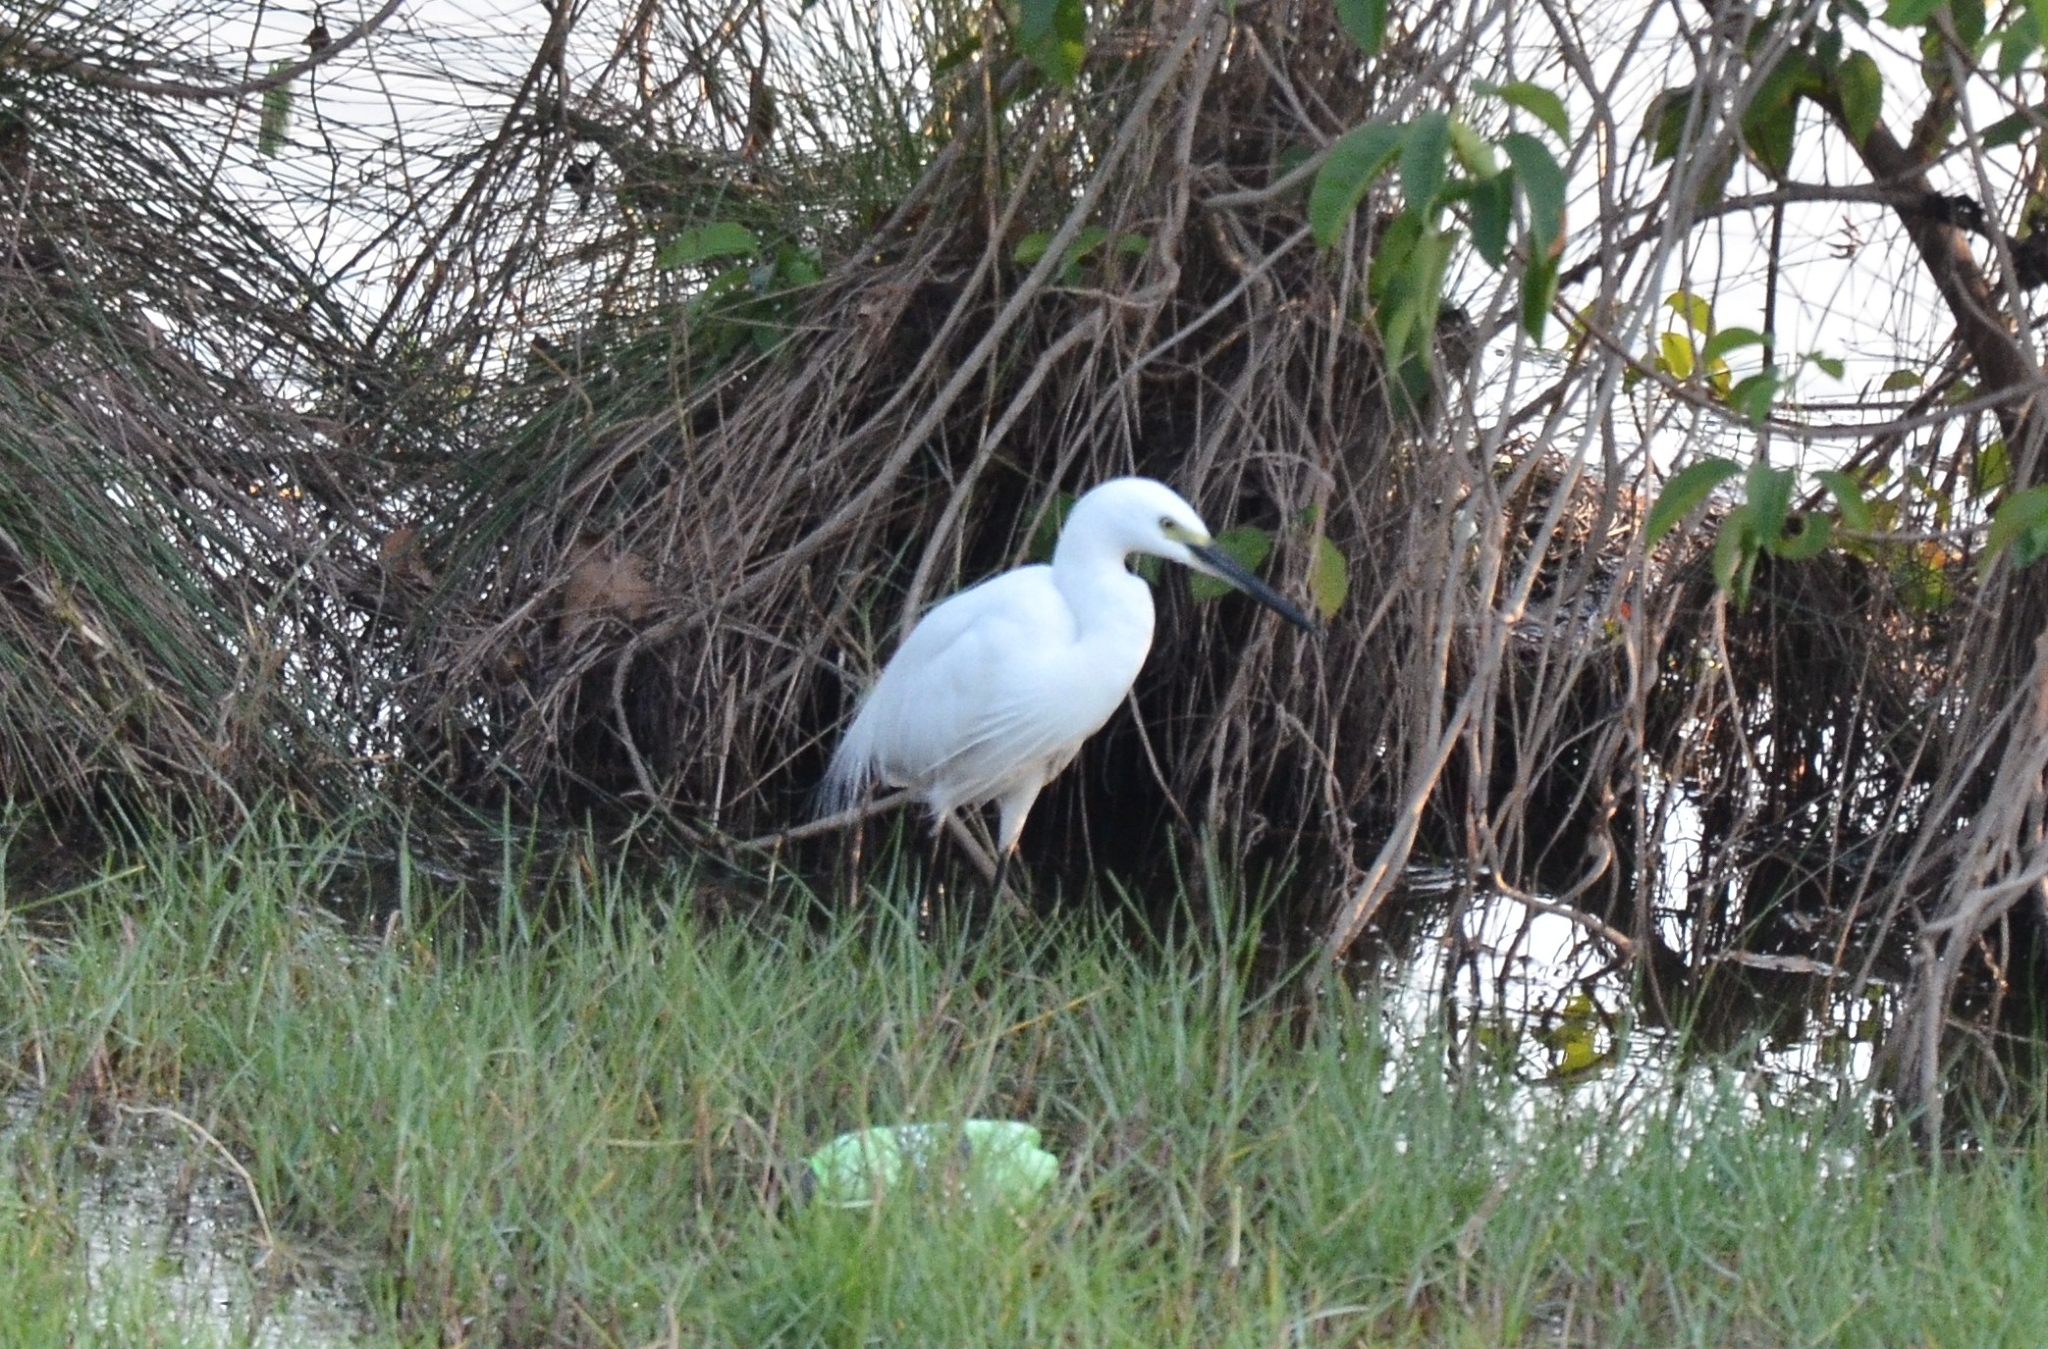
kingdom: Animalia
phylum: Chordata
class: Aves
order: Pelecaniformes
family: Ardeidae
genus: Egretta
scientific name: Egretta garzetta
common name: Little egret
